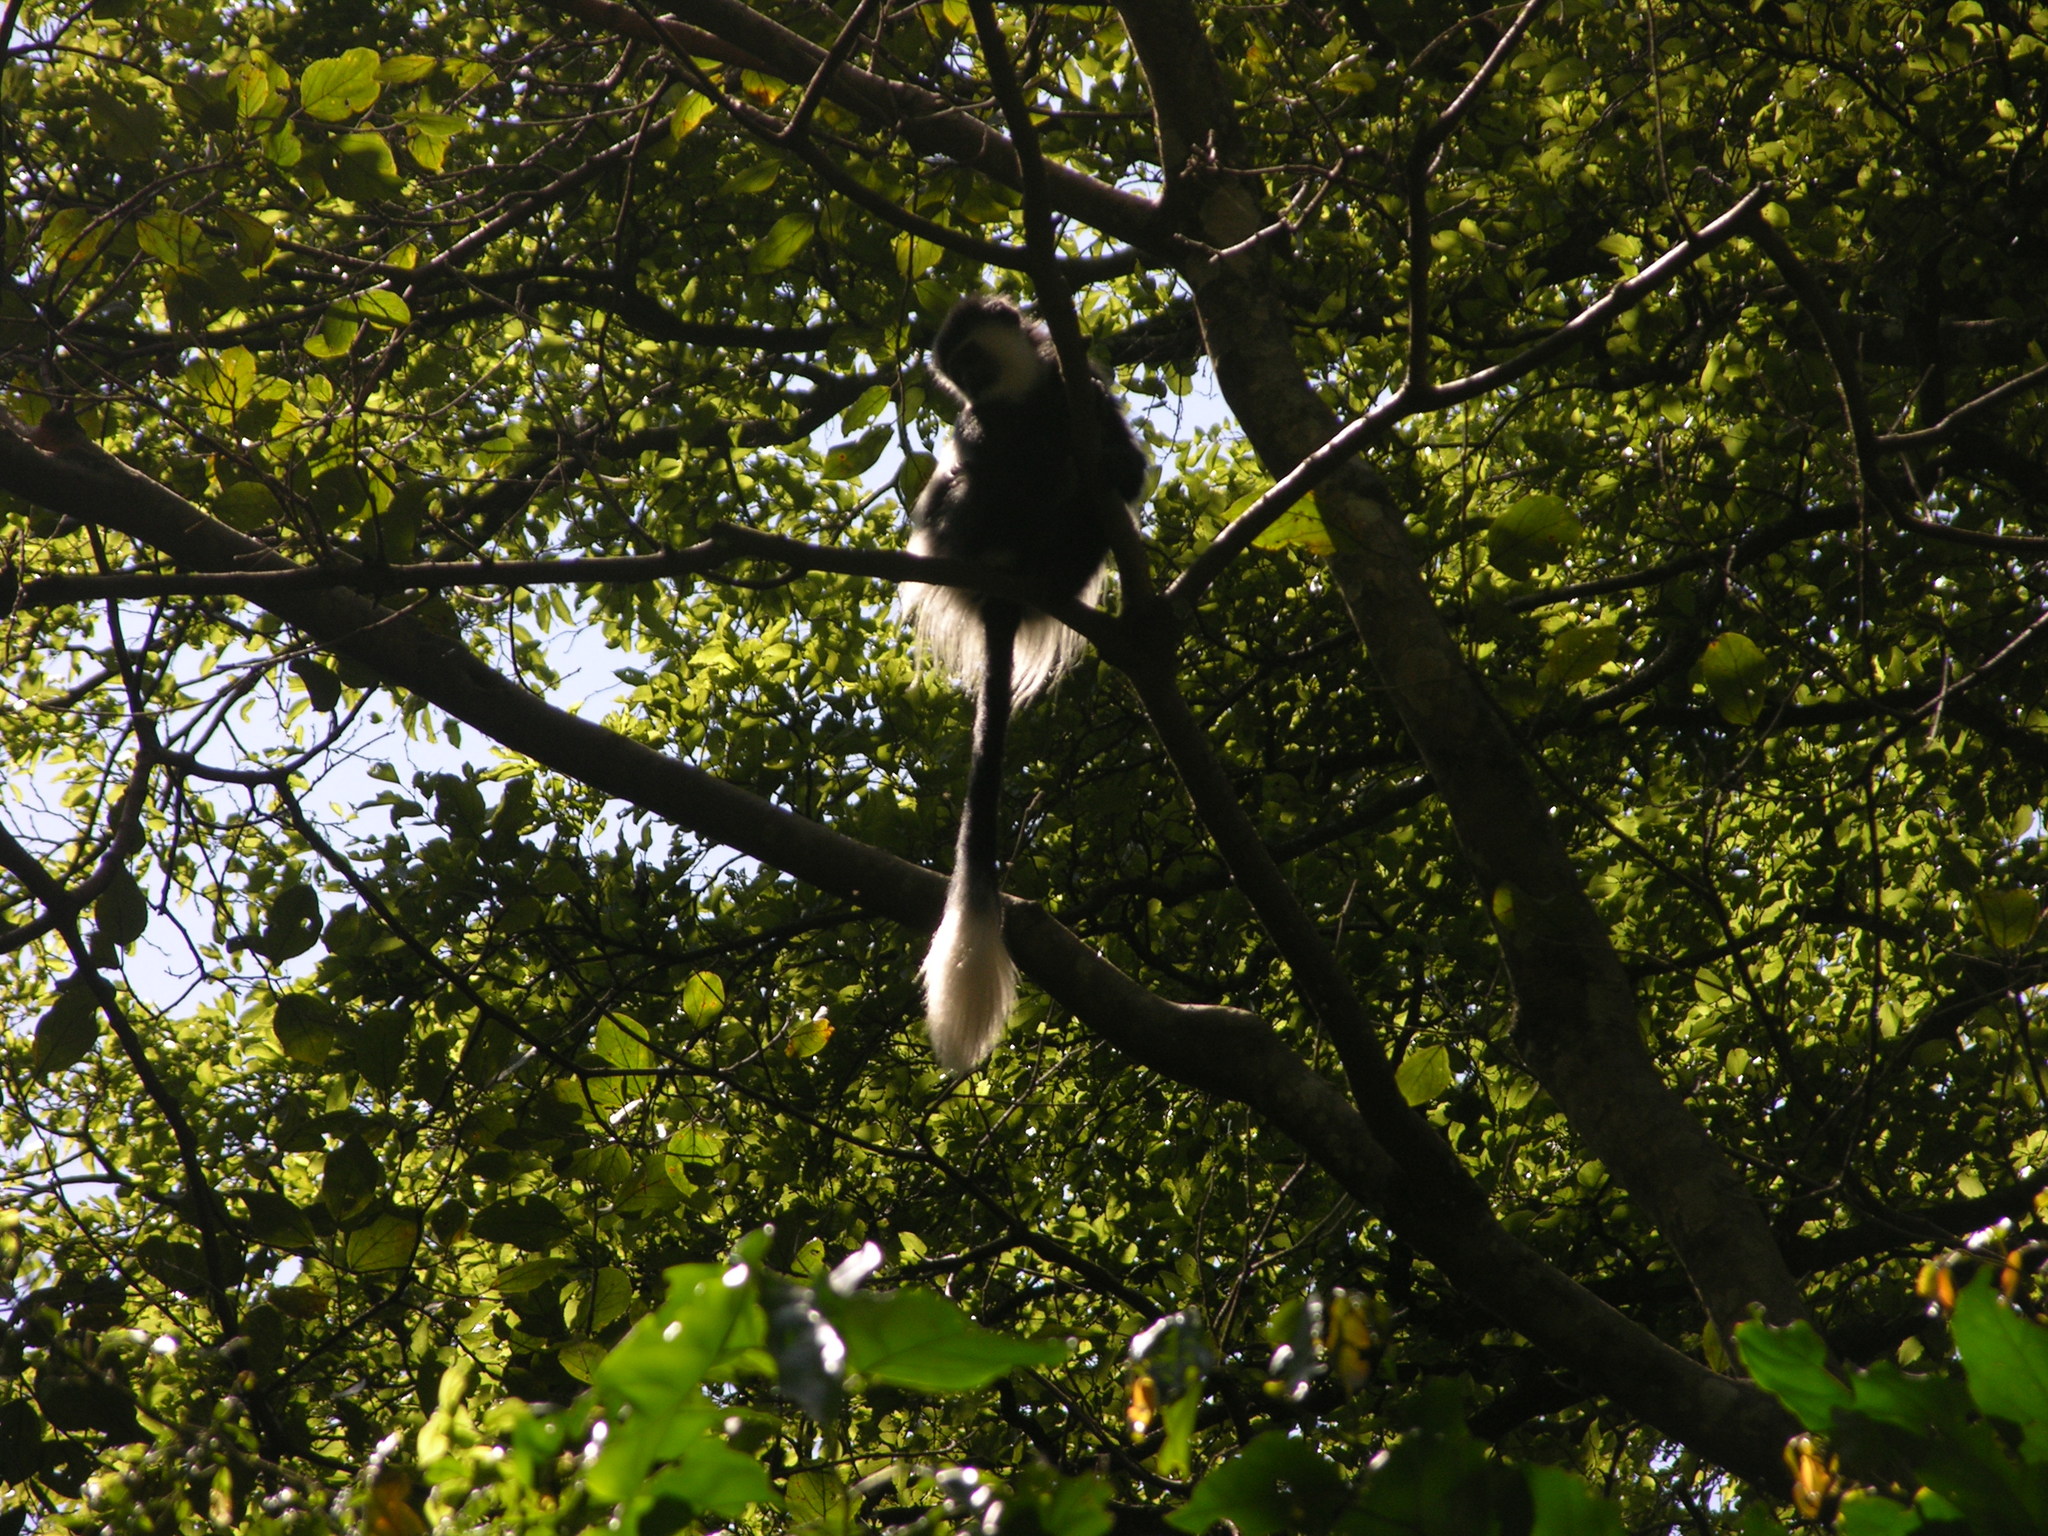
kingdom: Animalia
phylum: Chordata
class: Mammalia
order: Primates
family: Cercopithecidae
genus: Colobus
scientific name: Colobus guereza
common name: Mantled guereza
